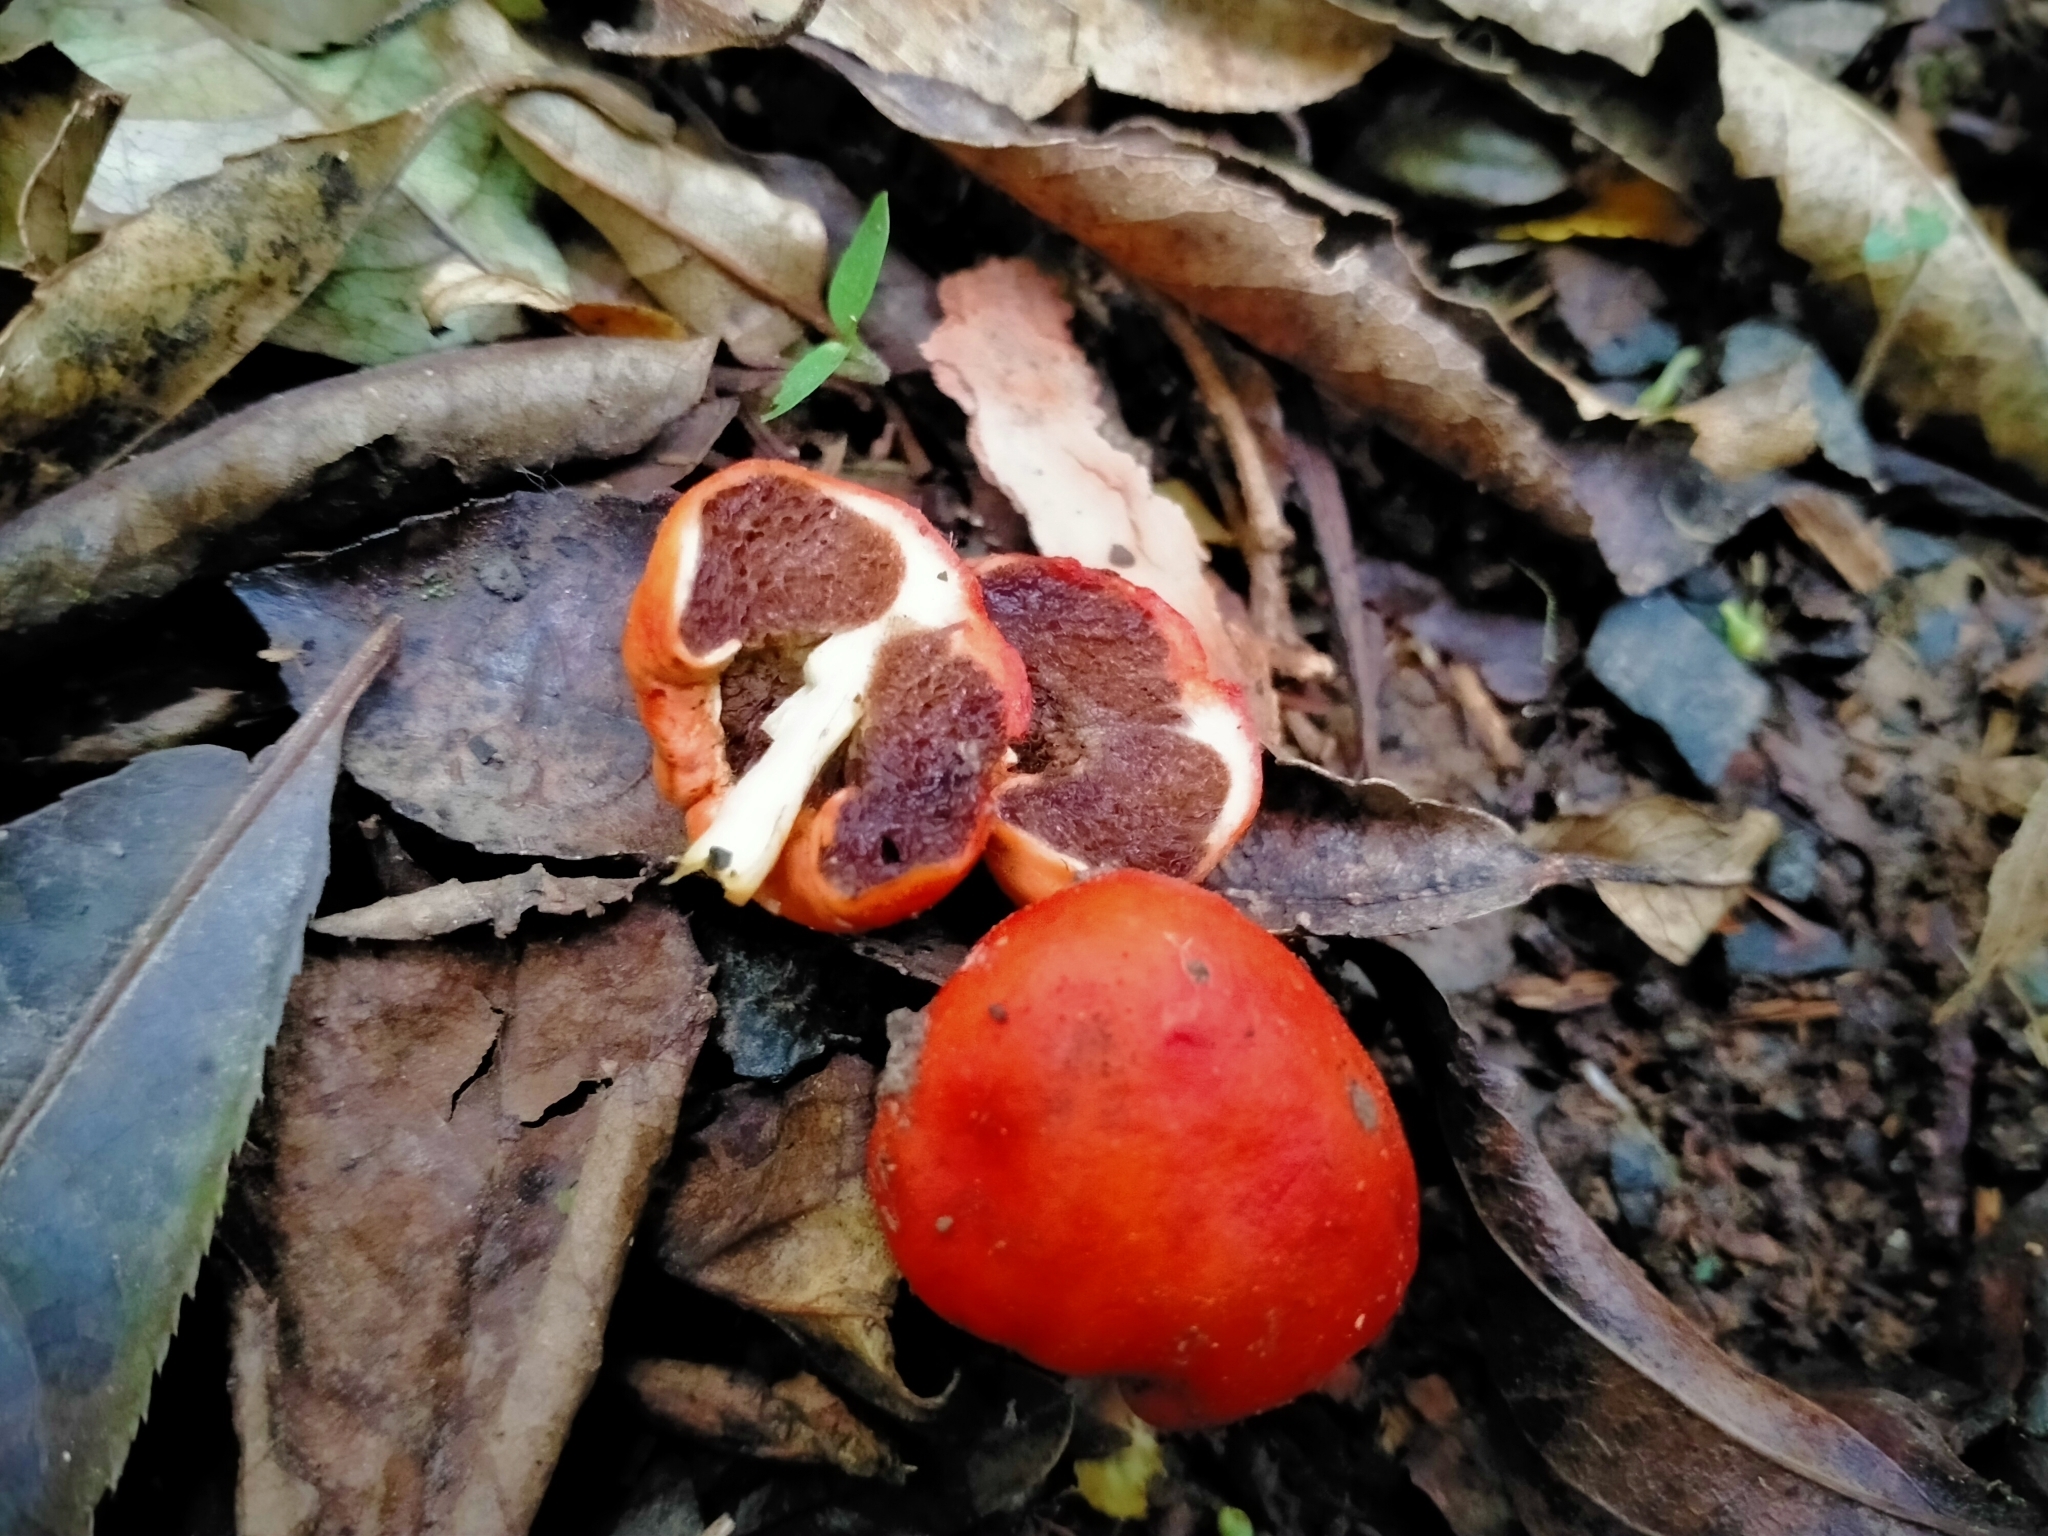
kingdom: Fungi
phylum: Basidiomycota
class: Agaricomycetes
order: Agaricales
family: Strophariaceae
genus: Leratiomyces
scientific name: Leratiomyces erythrocephalus
